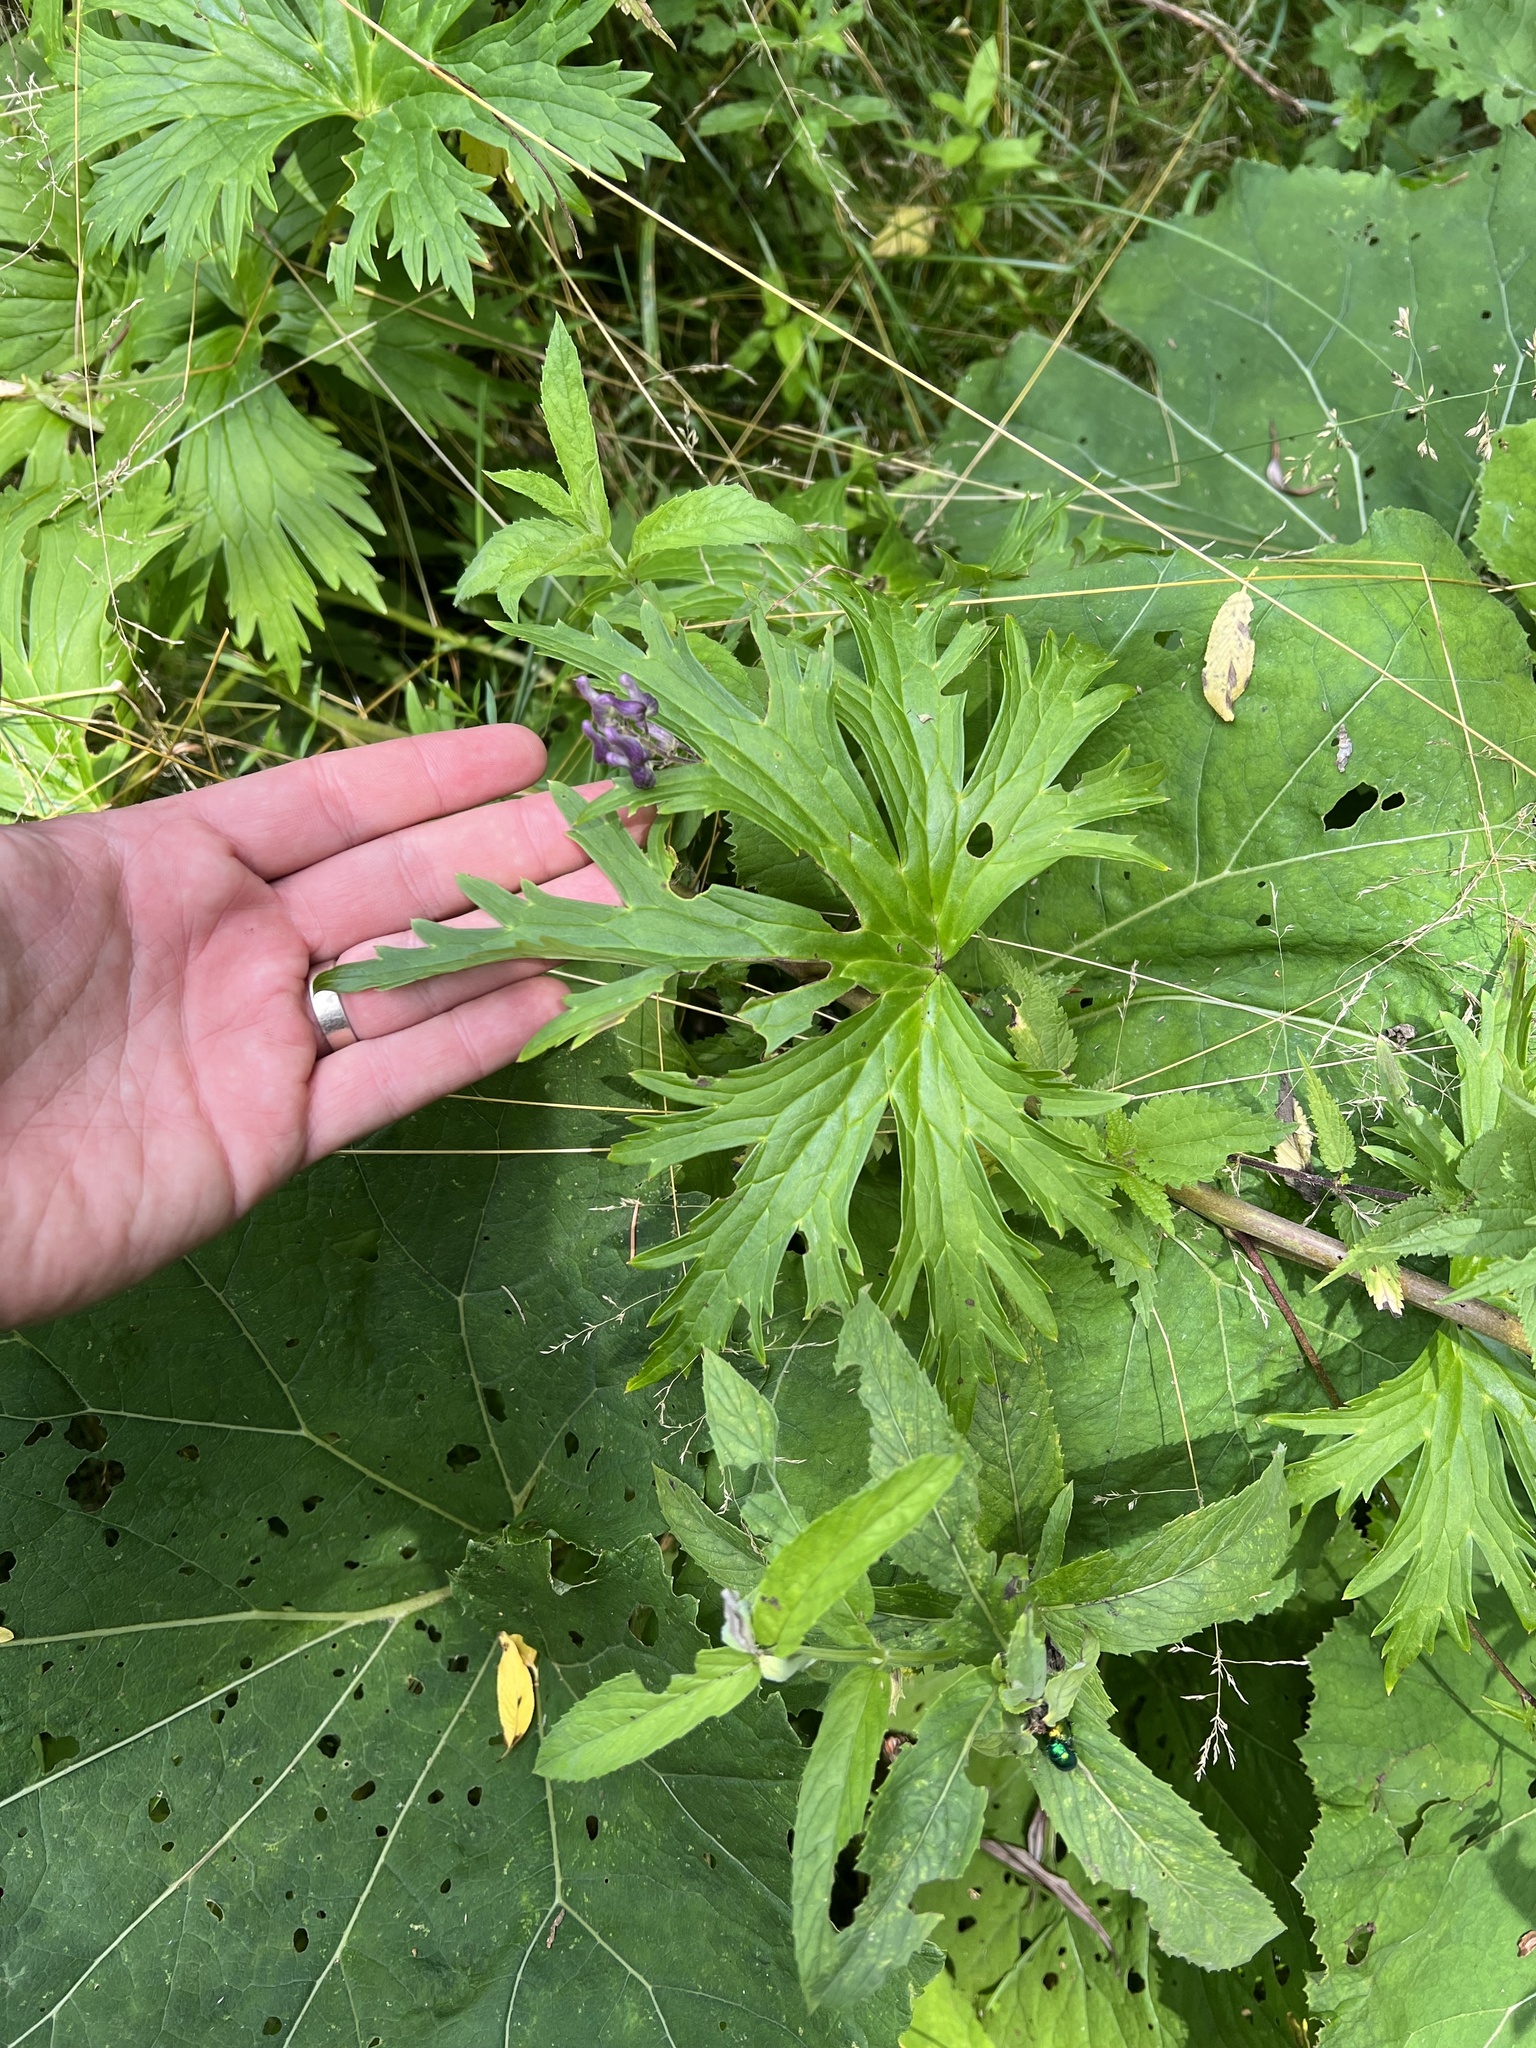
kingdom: Plantae
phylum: Tracheophyta
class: Magnoliopsida
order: Ranunculales
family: Ranunculaceae
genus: Aconitum
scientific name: Aconitum septentrionale
